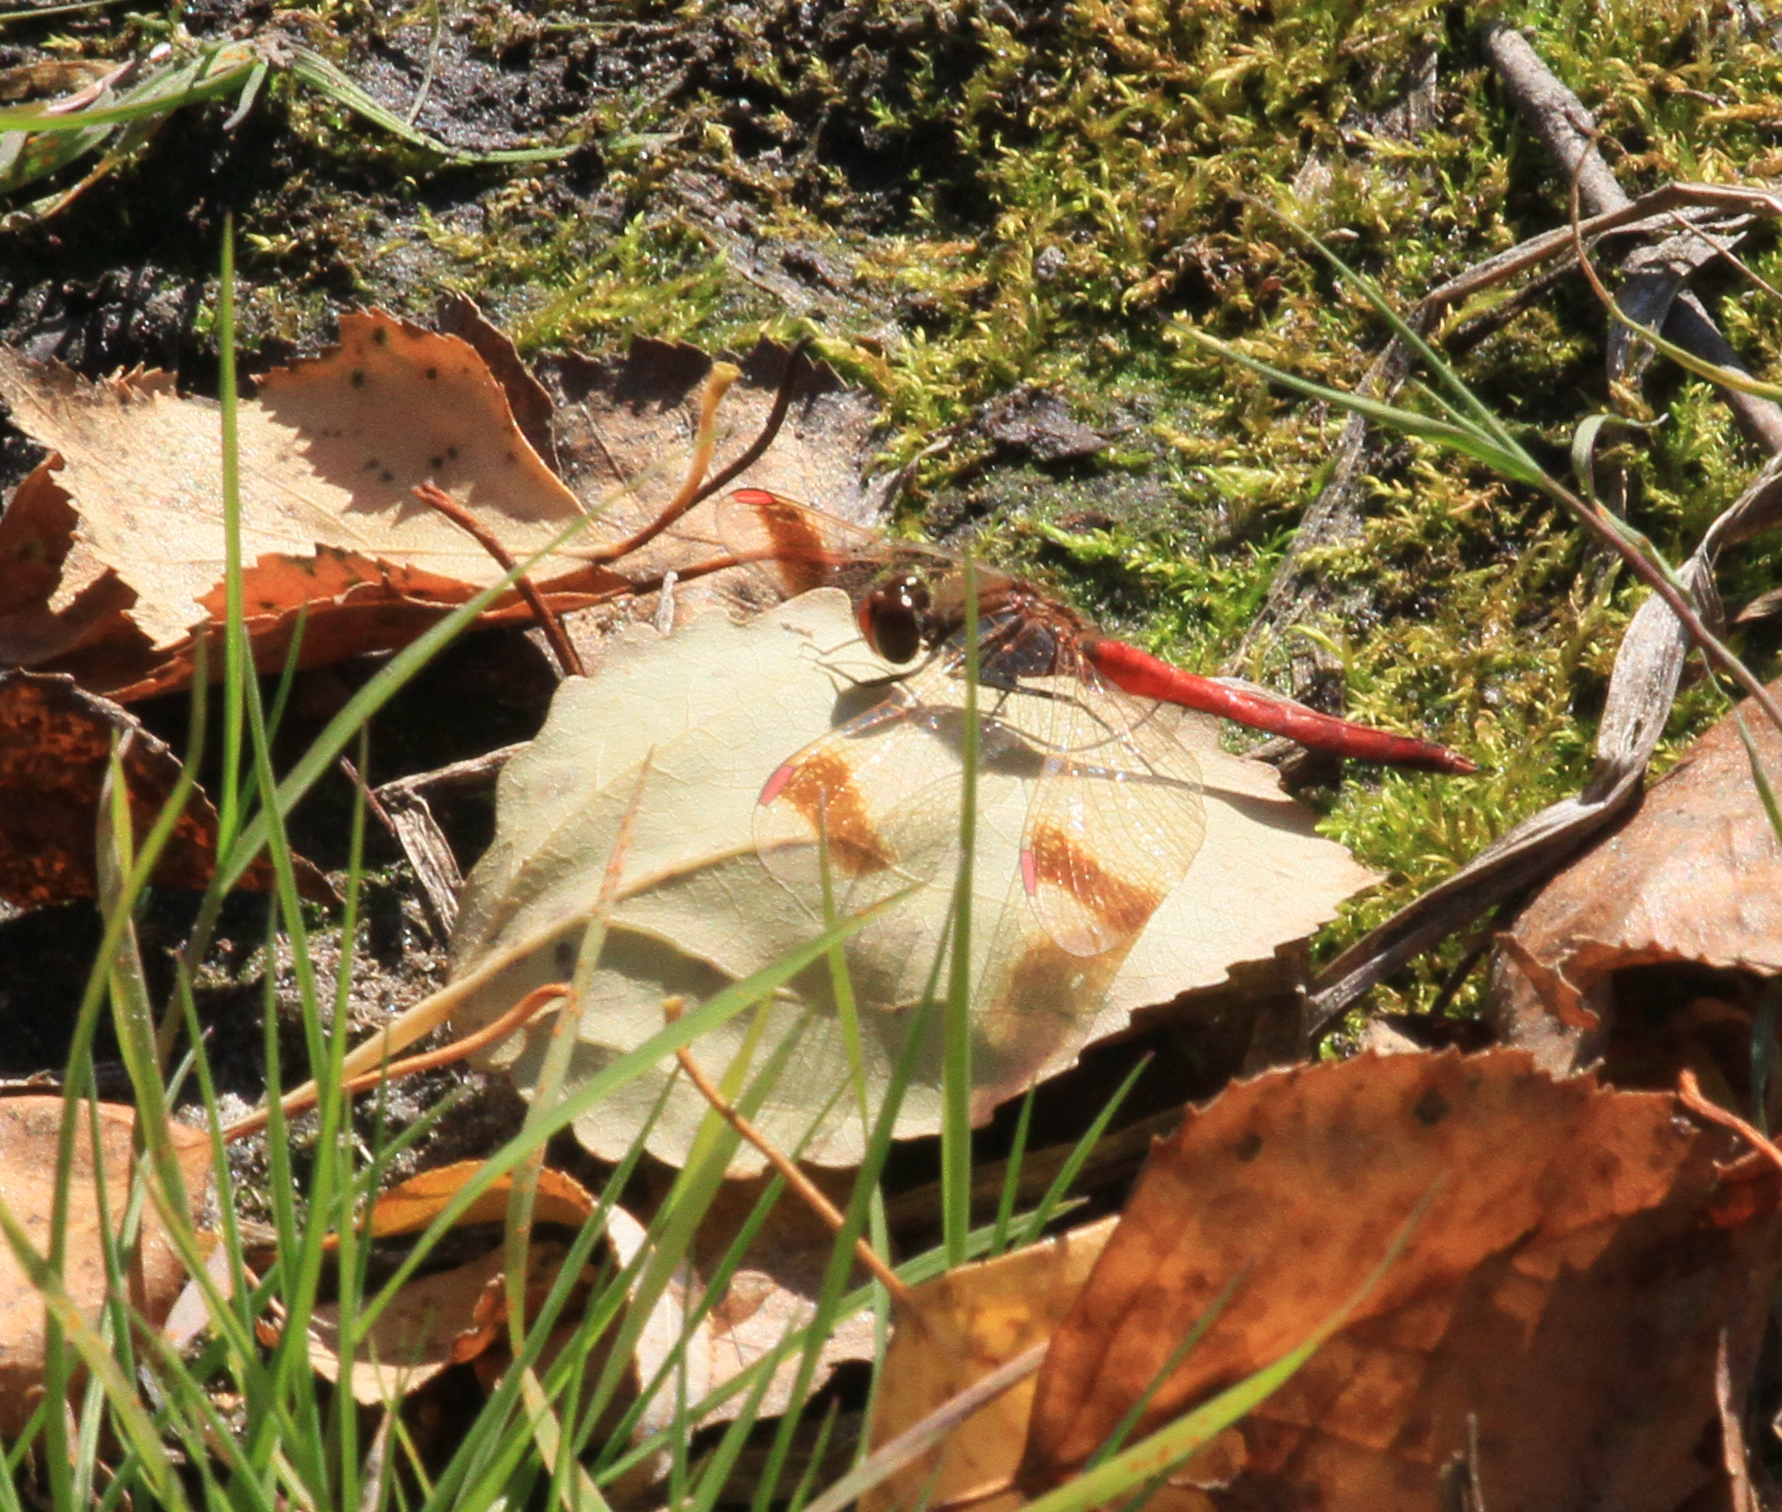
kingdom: Animalia
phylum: Arthropoda
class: Insecta
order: Odonata
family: Libellulidae
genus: Sympetrum
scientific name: Sympetrum pedemontanum
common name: Banded darter
